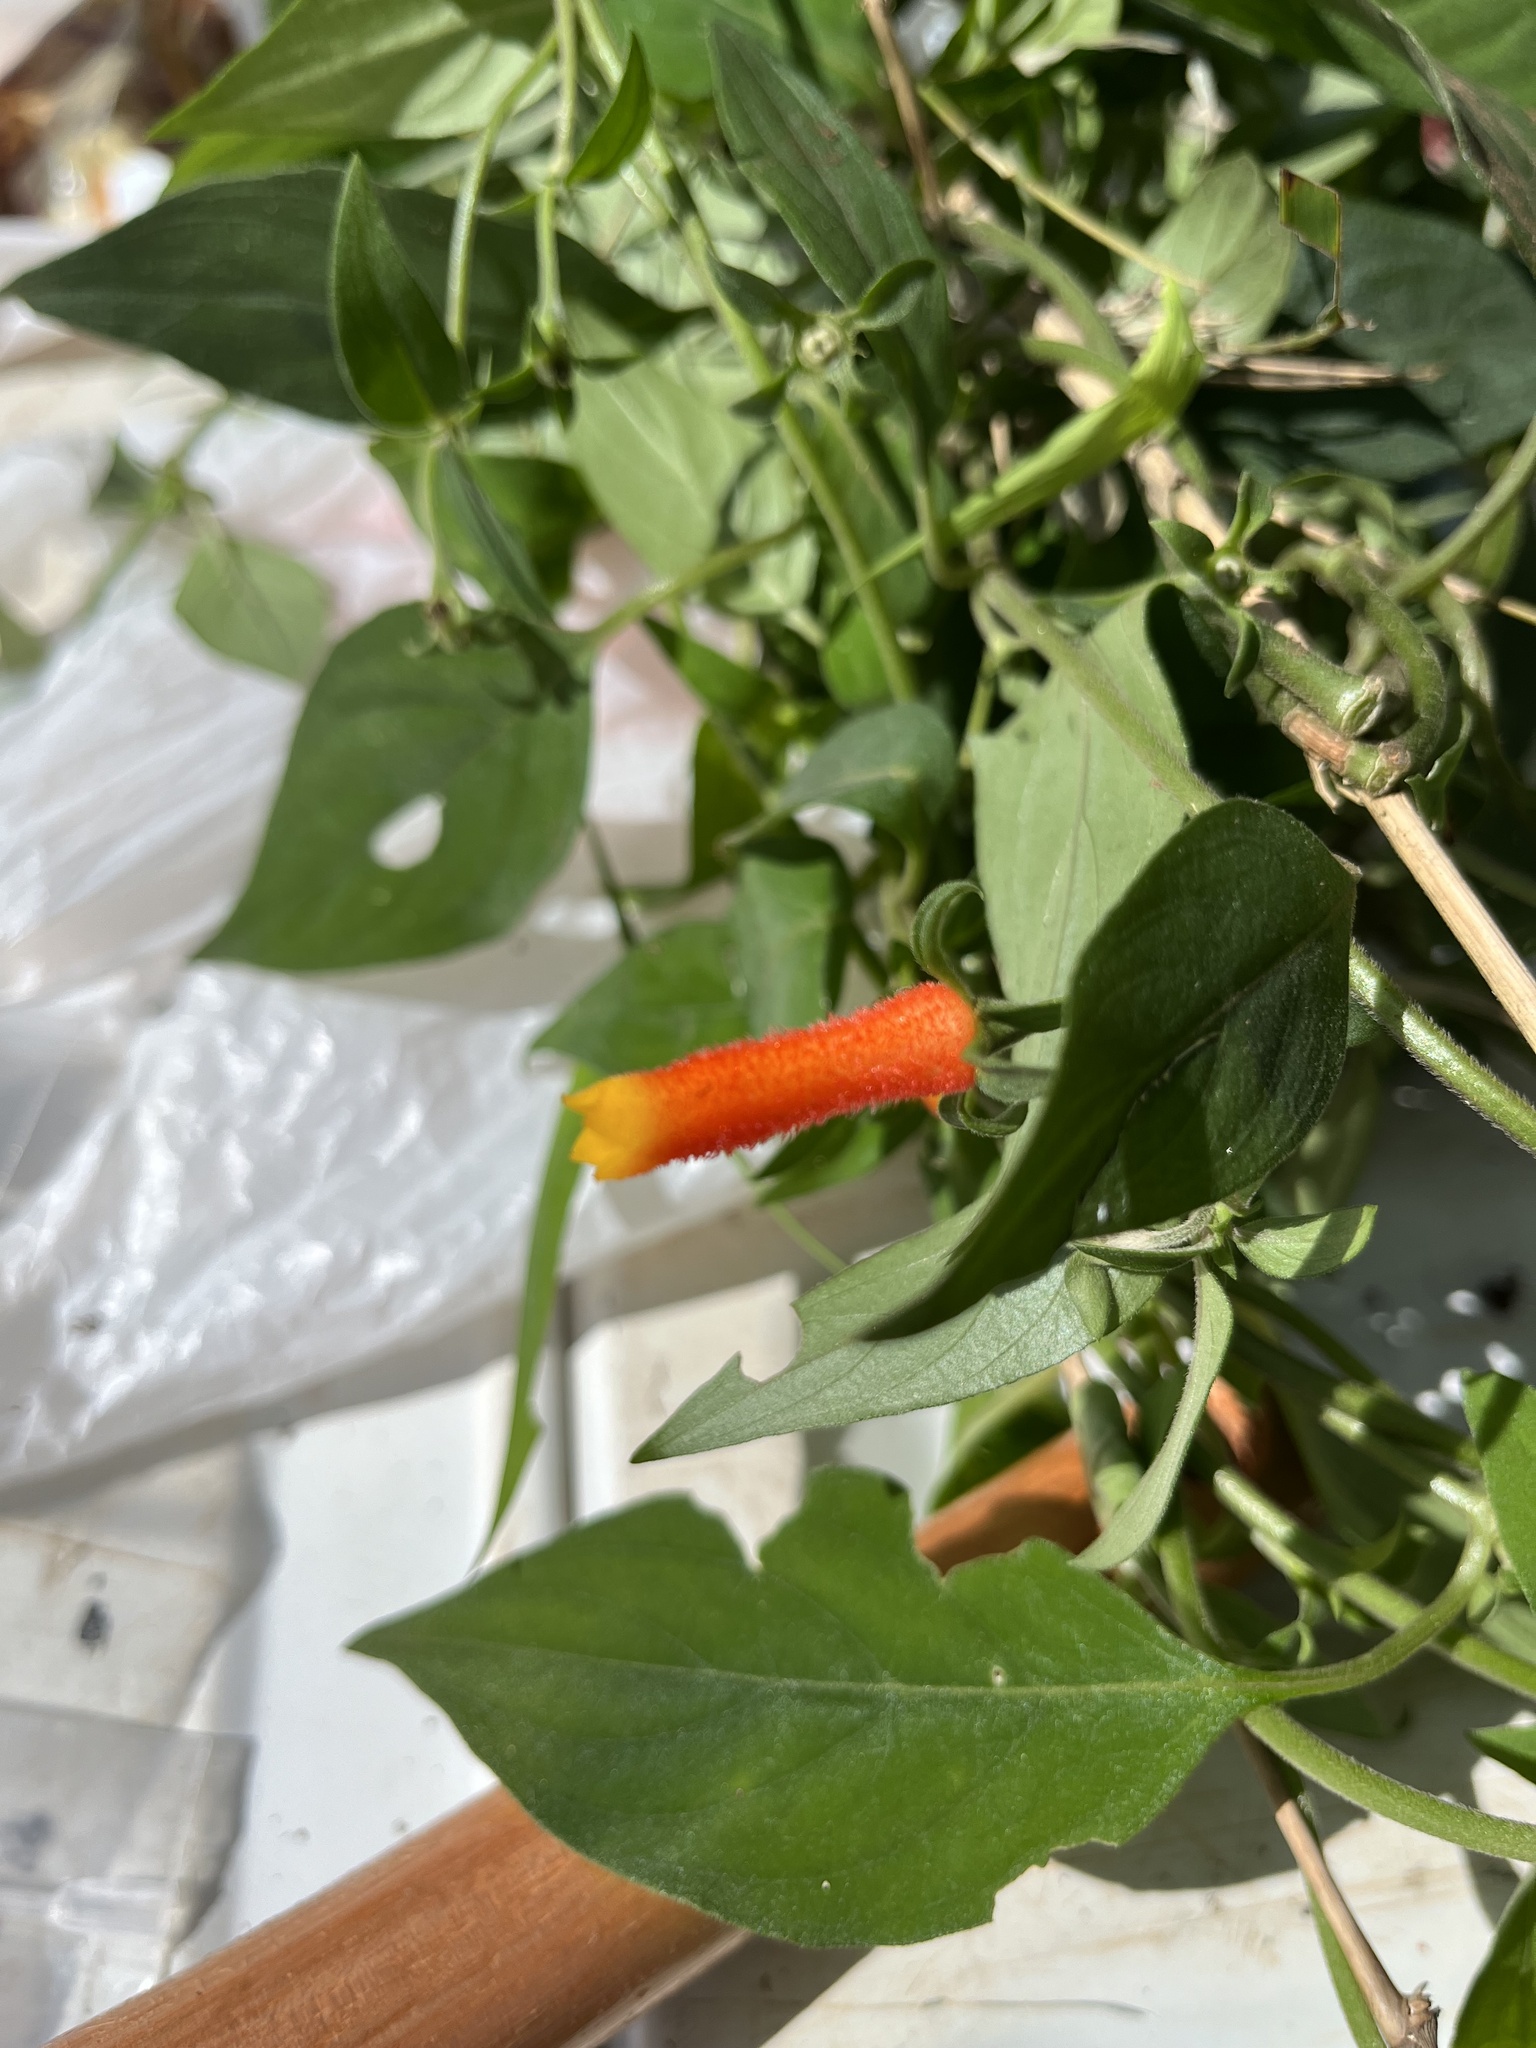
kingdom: Plantae
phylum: Tracheophyta
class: Magnoliopsida
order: Gentianales
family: Rubiaceae
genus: Manettia
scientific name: Manettia paraguariensis
